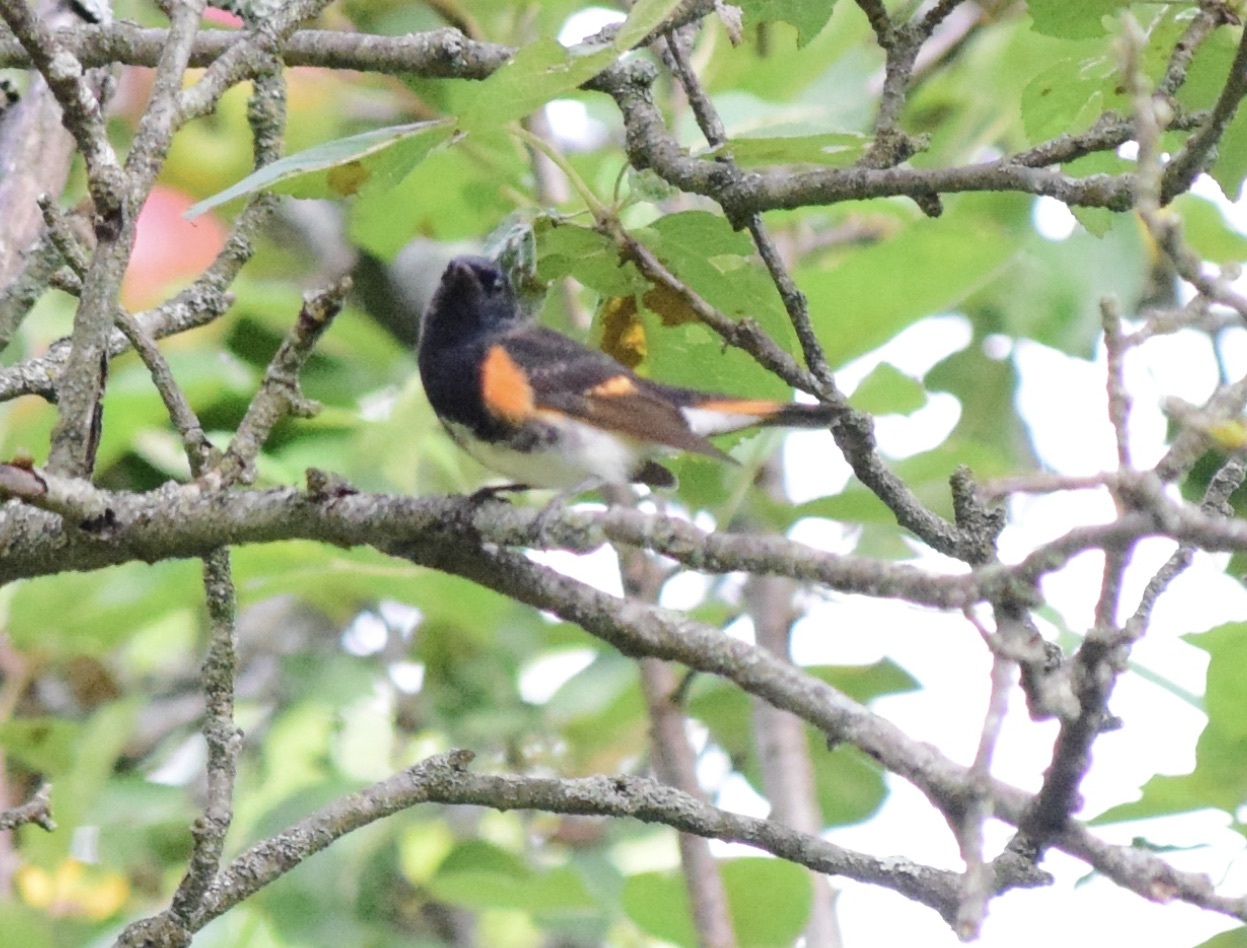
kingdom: Animalia
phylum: Chordata
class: Aves
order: Passeriformes
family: Parulidae
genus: Setophaga
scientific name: Setophaga ruticilla
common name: American redstart
